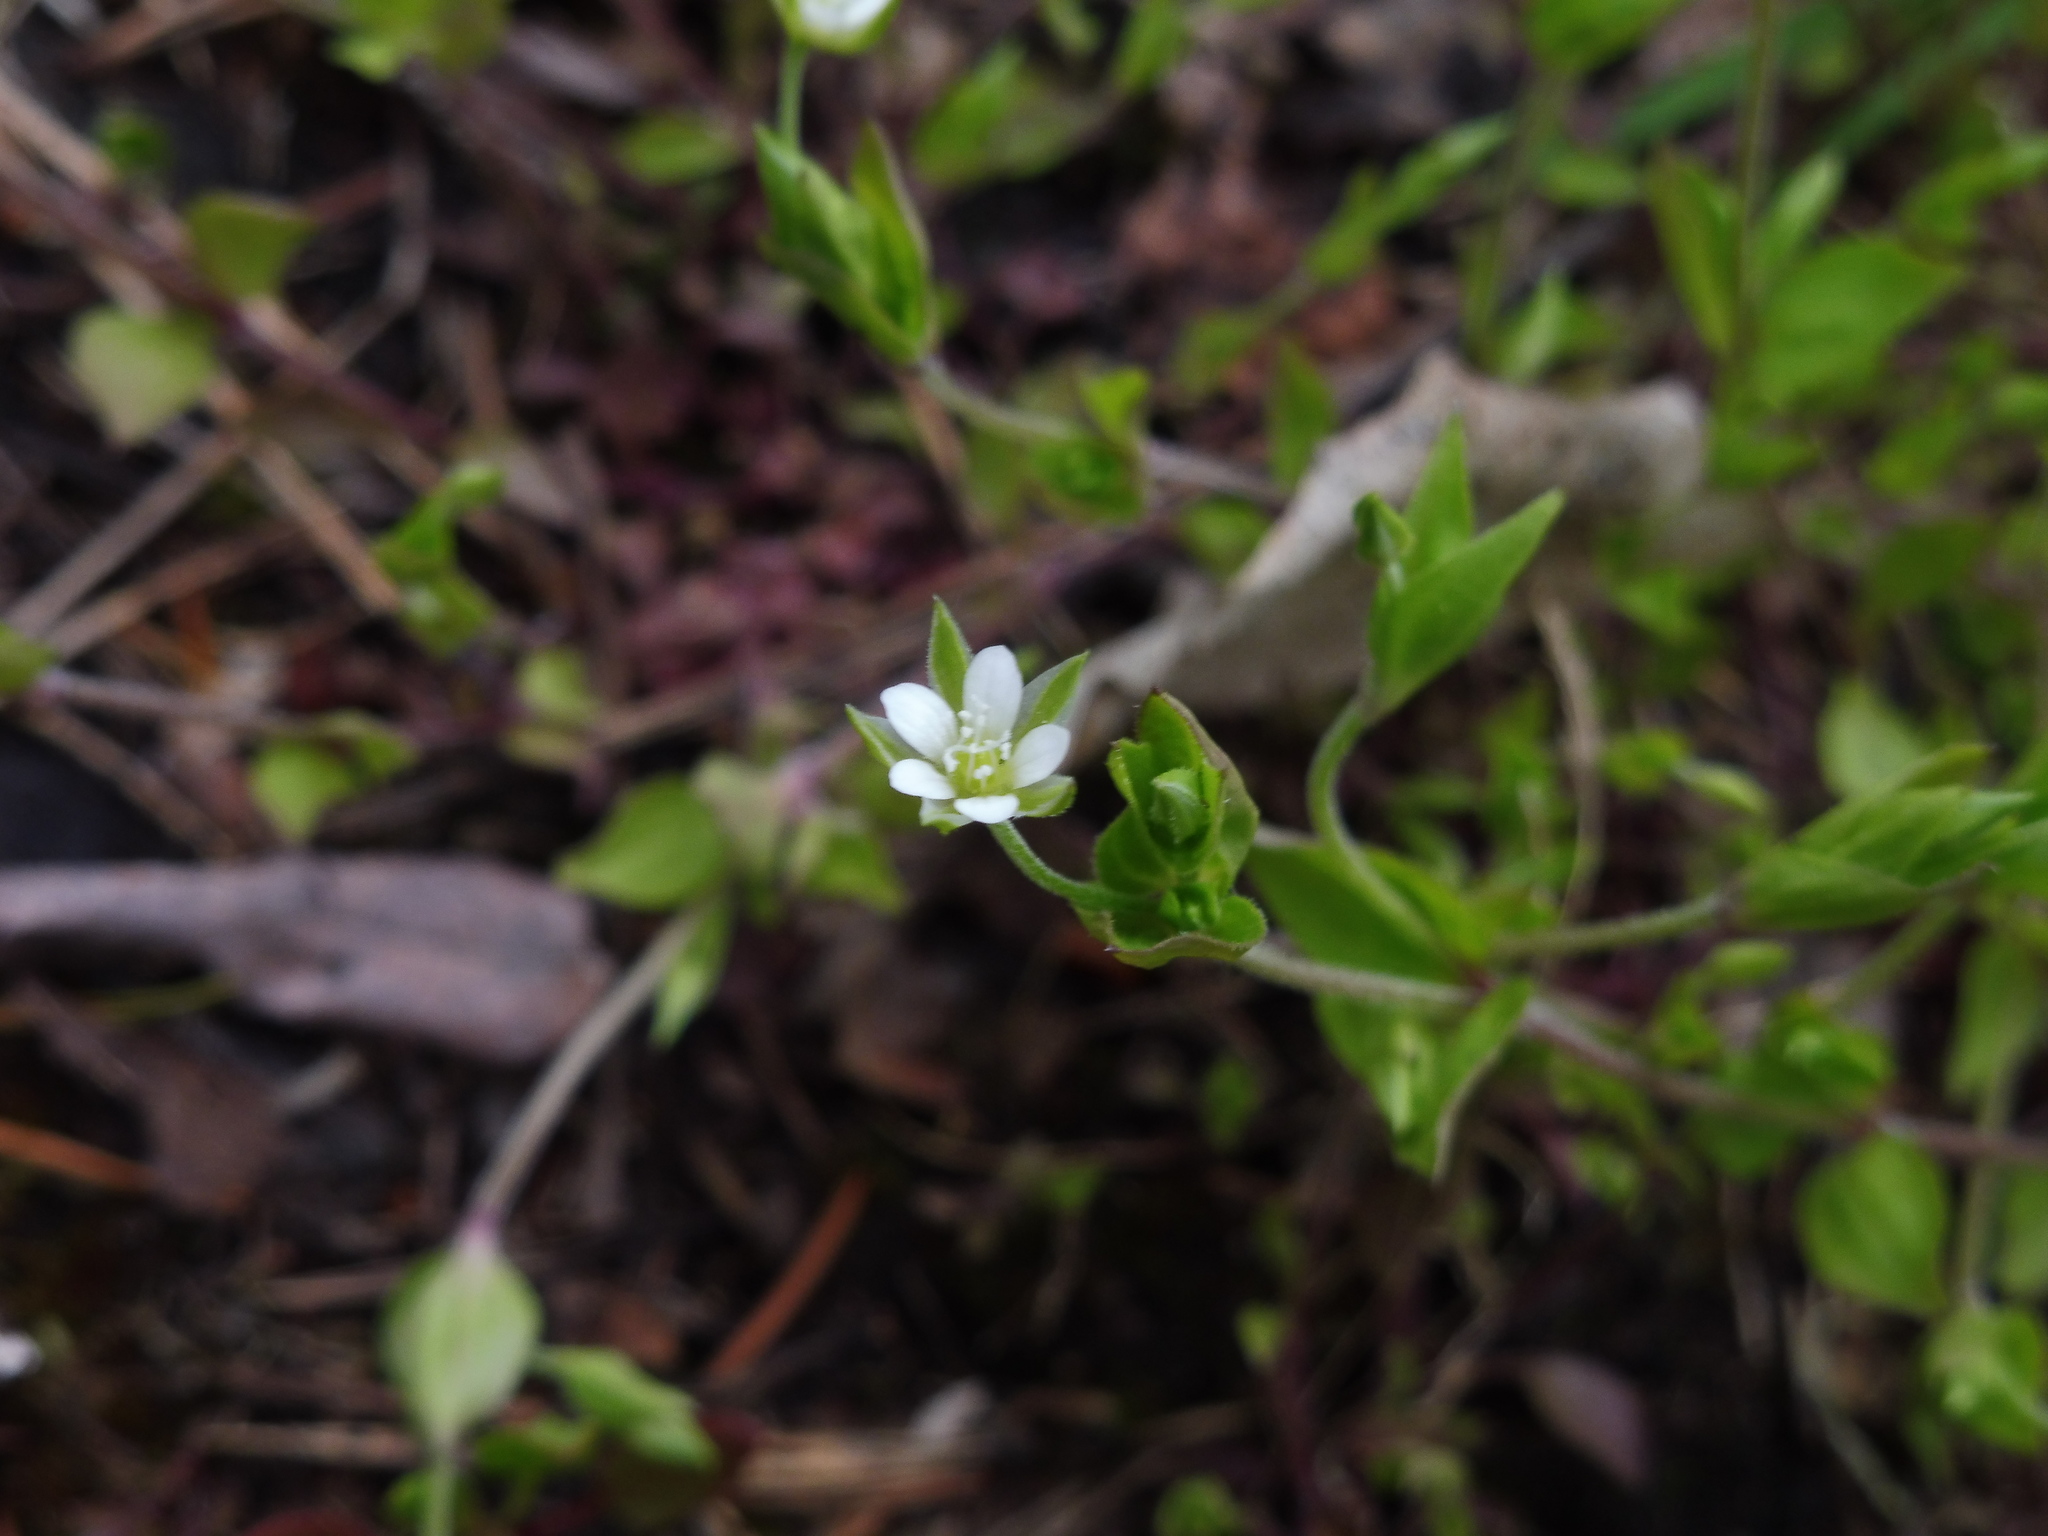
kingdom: Plantae
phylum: Tracheophyta
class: Magnoliopsida
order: Caryophyllales
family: Caryophyllaceae
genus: Arenaria
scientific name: Arenaria serpyllifolia
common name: Thyme-leaved sandwort
